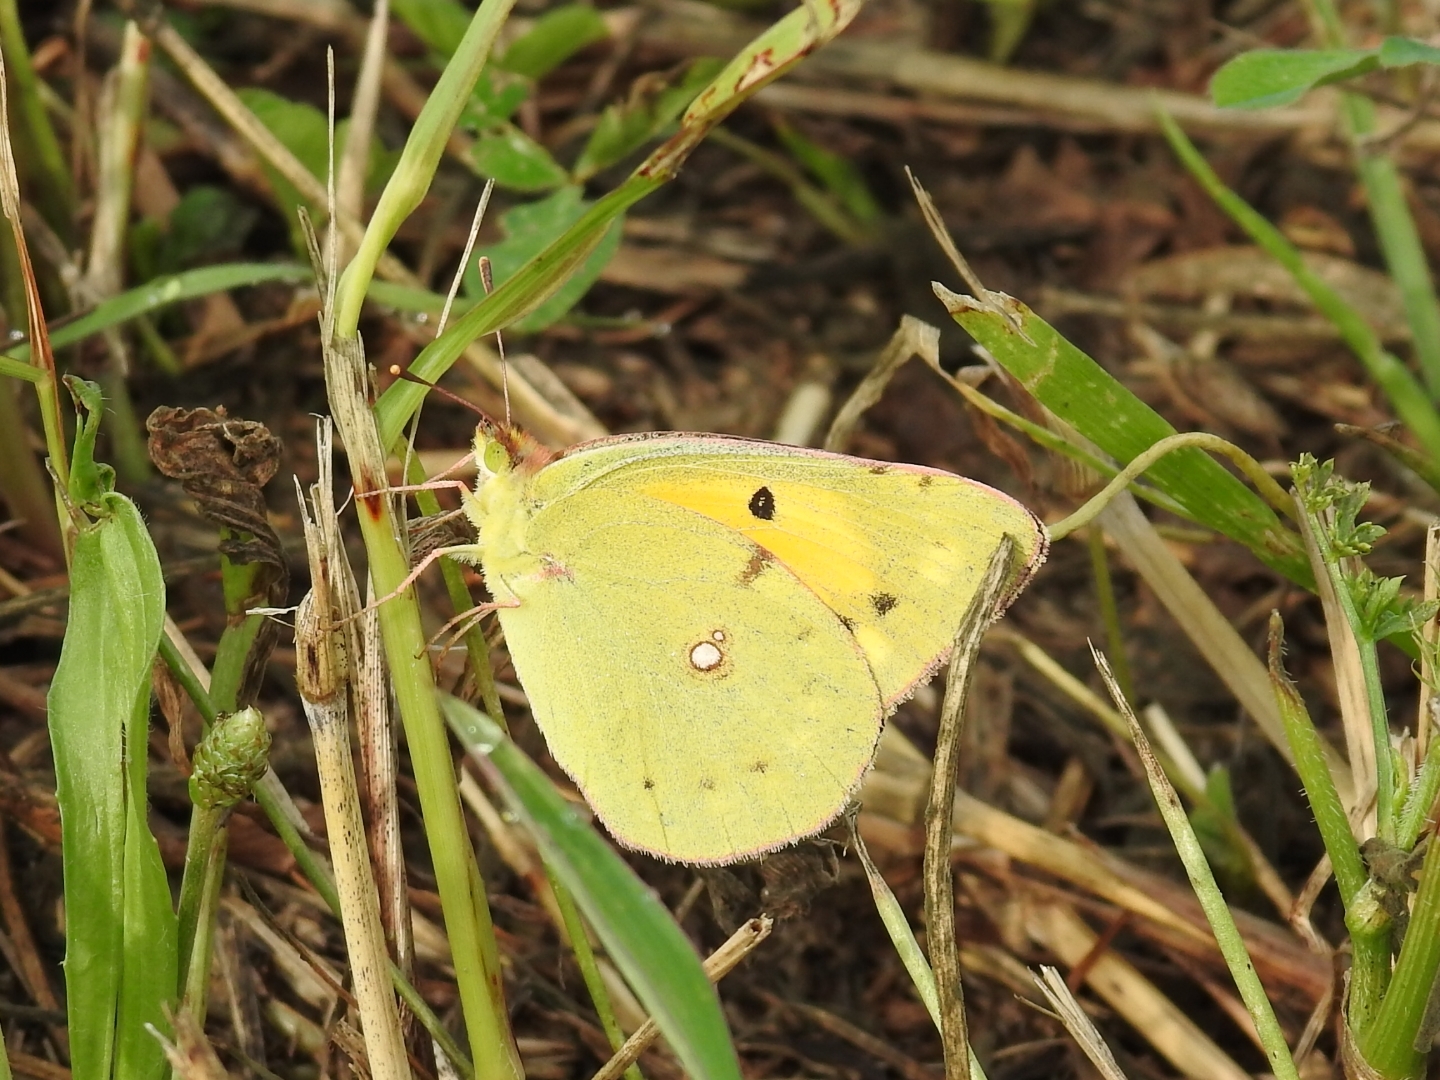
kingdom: Animalia
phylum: Arthropoda
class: Insecta
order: Lepidoptera
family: Pieridae
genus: Colias
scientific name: Colias croceus
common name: Clouded yellow
